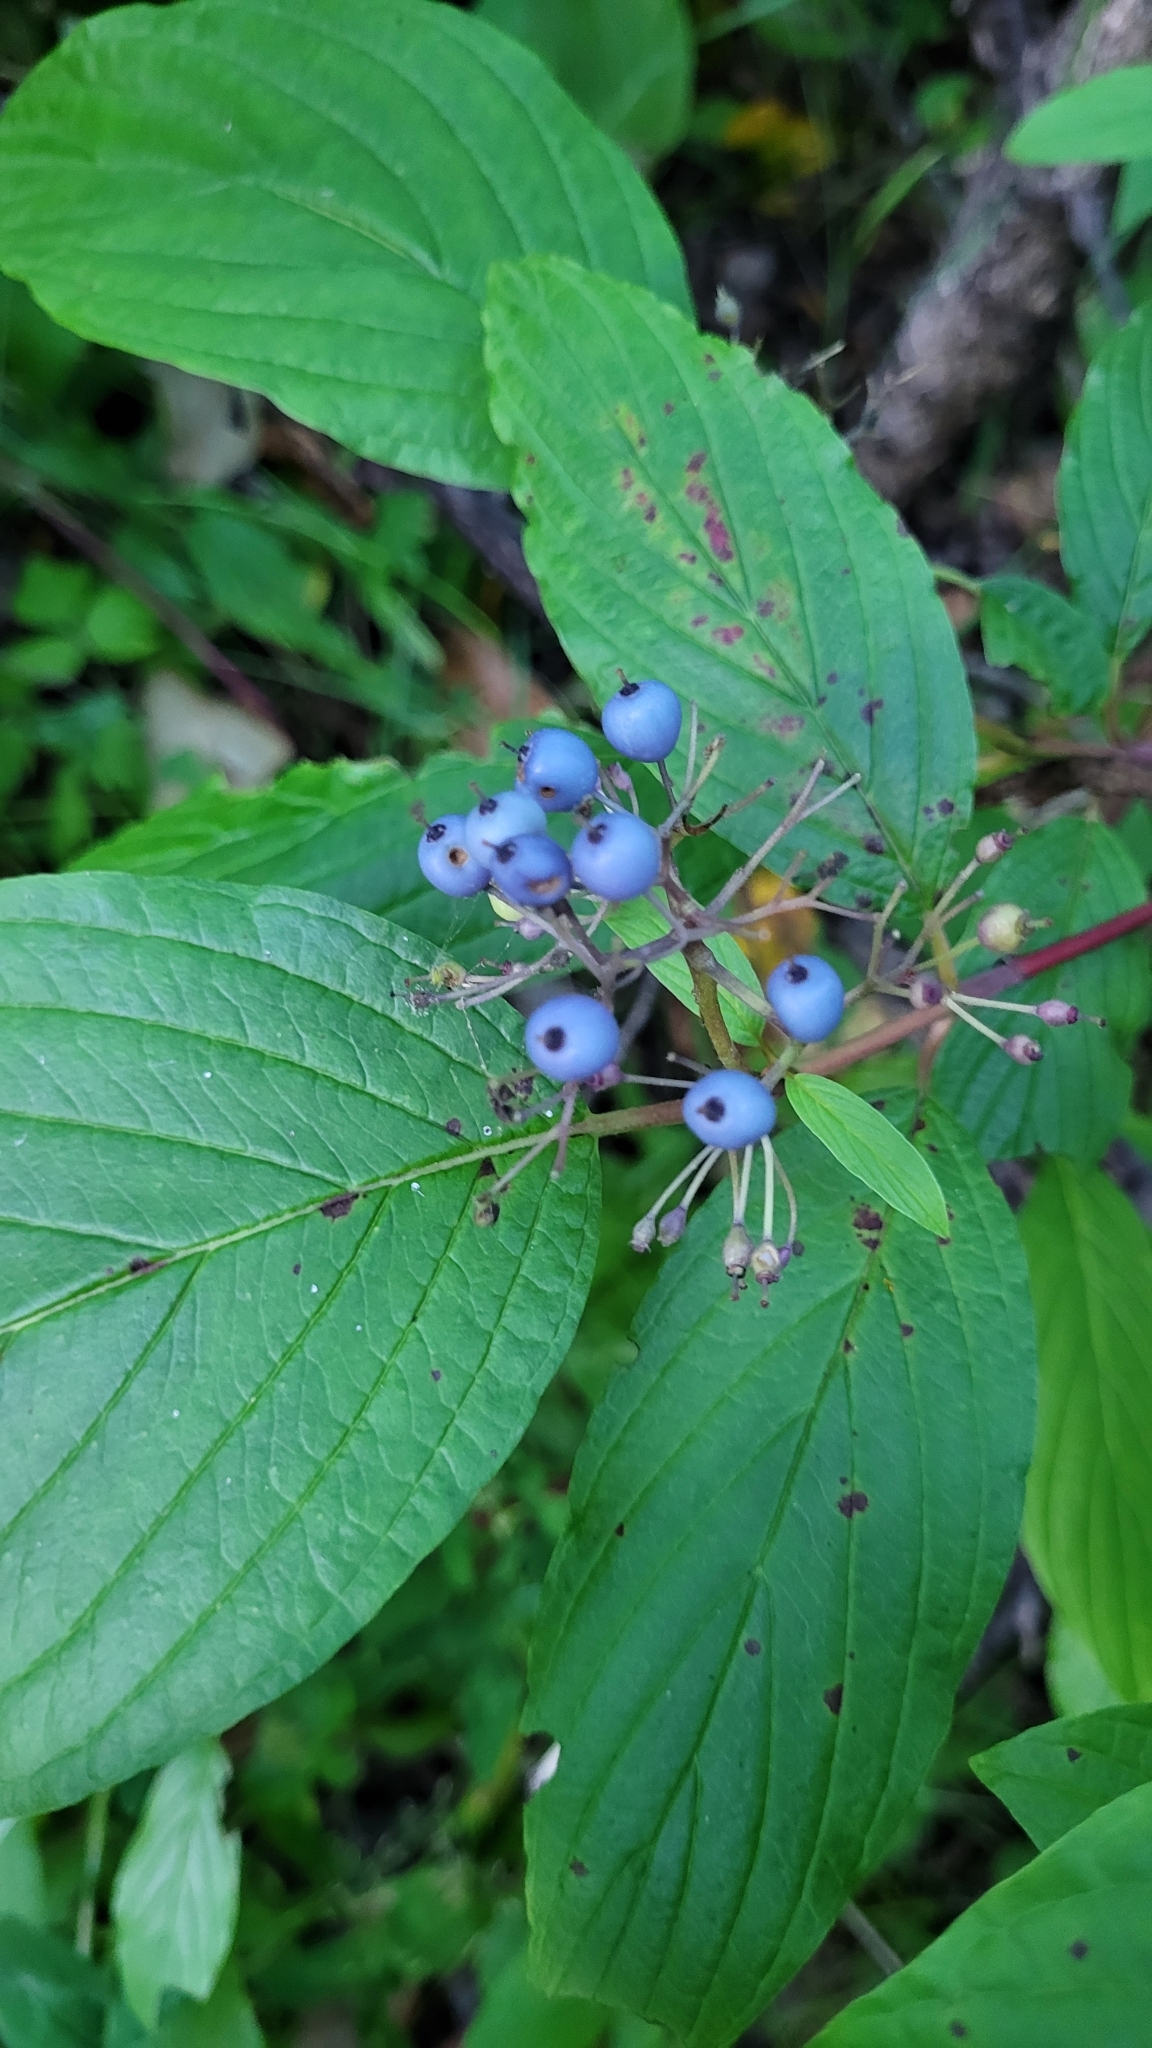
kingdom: Plantae
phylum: Tracheophyta
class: Magnoliopsida
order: Cornales
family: Cornaceae
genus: Cornus
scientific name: Cornus sericea
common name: Red-osier dogwood
